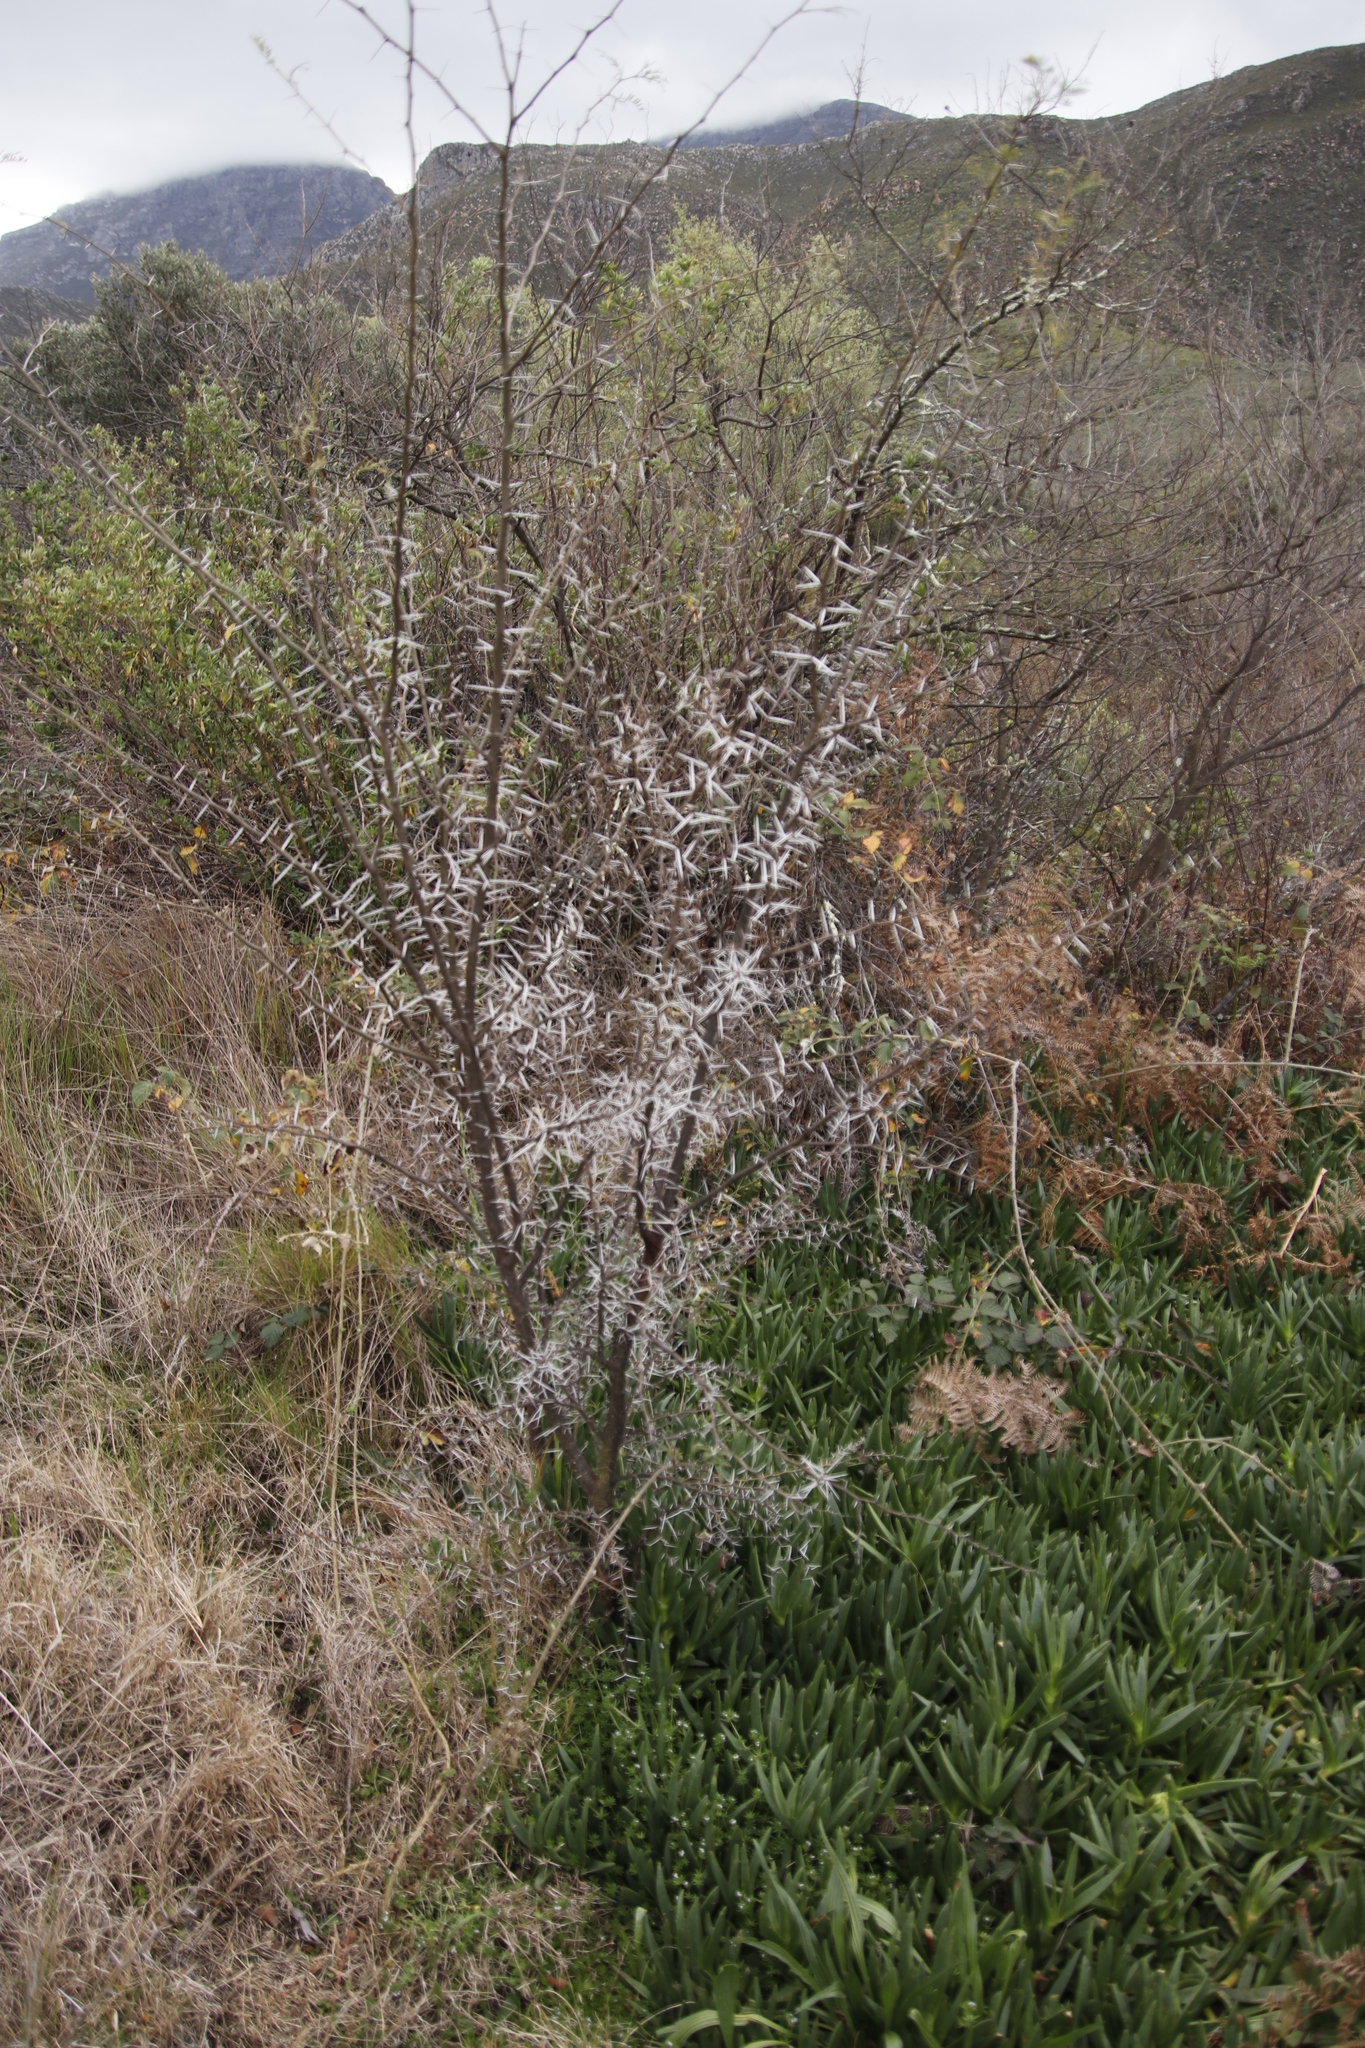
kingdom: Plantae
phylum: Tracheophyta
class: Magnoliopsida
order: Fabales
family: Fabaceae
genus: Vachellia
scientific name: Vachellia karroo
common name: Sweet thorn
